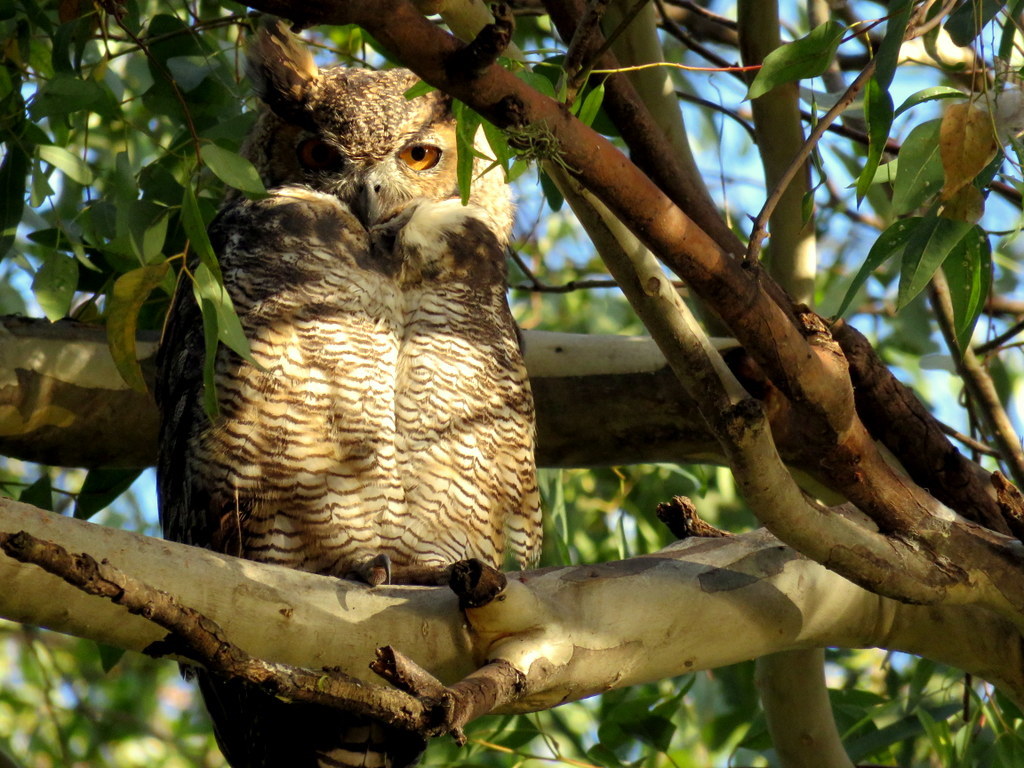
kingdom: Animalia
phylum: Chordata
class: Aves
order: Strigiformes
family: Strigidae
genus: Bubo
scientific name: Bubo virginianus
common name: Great horned owl
